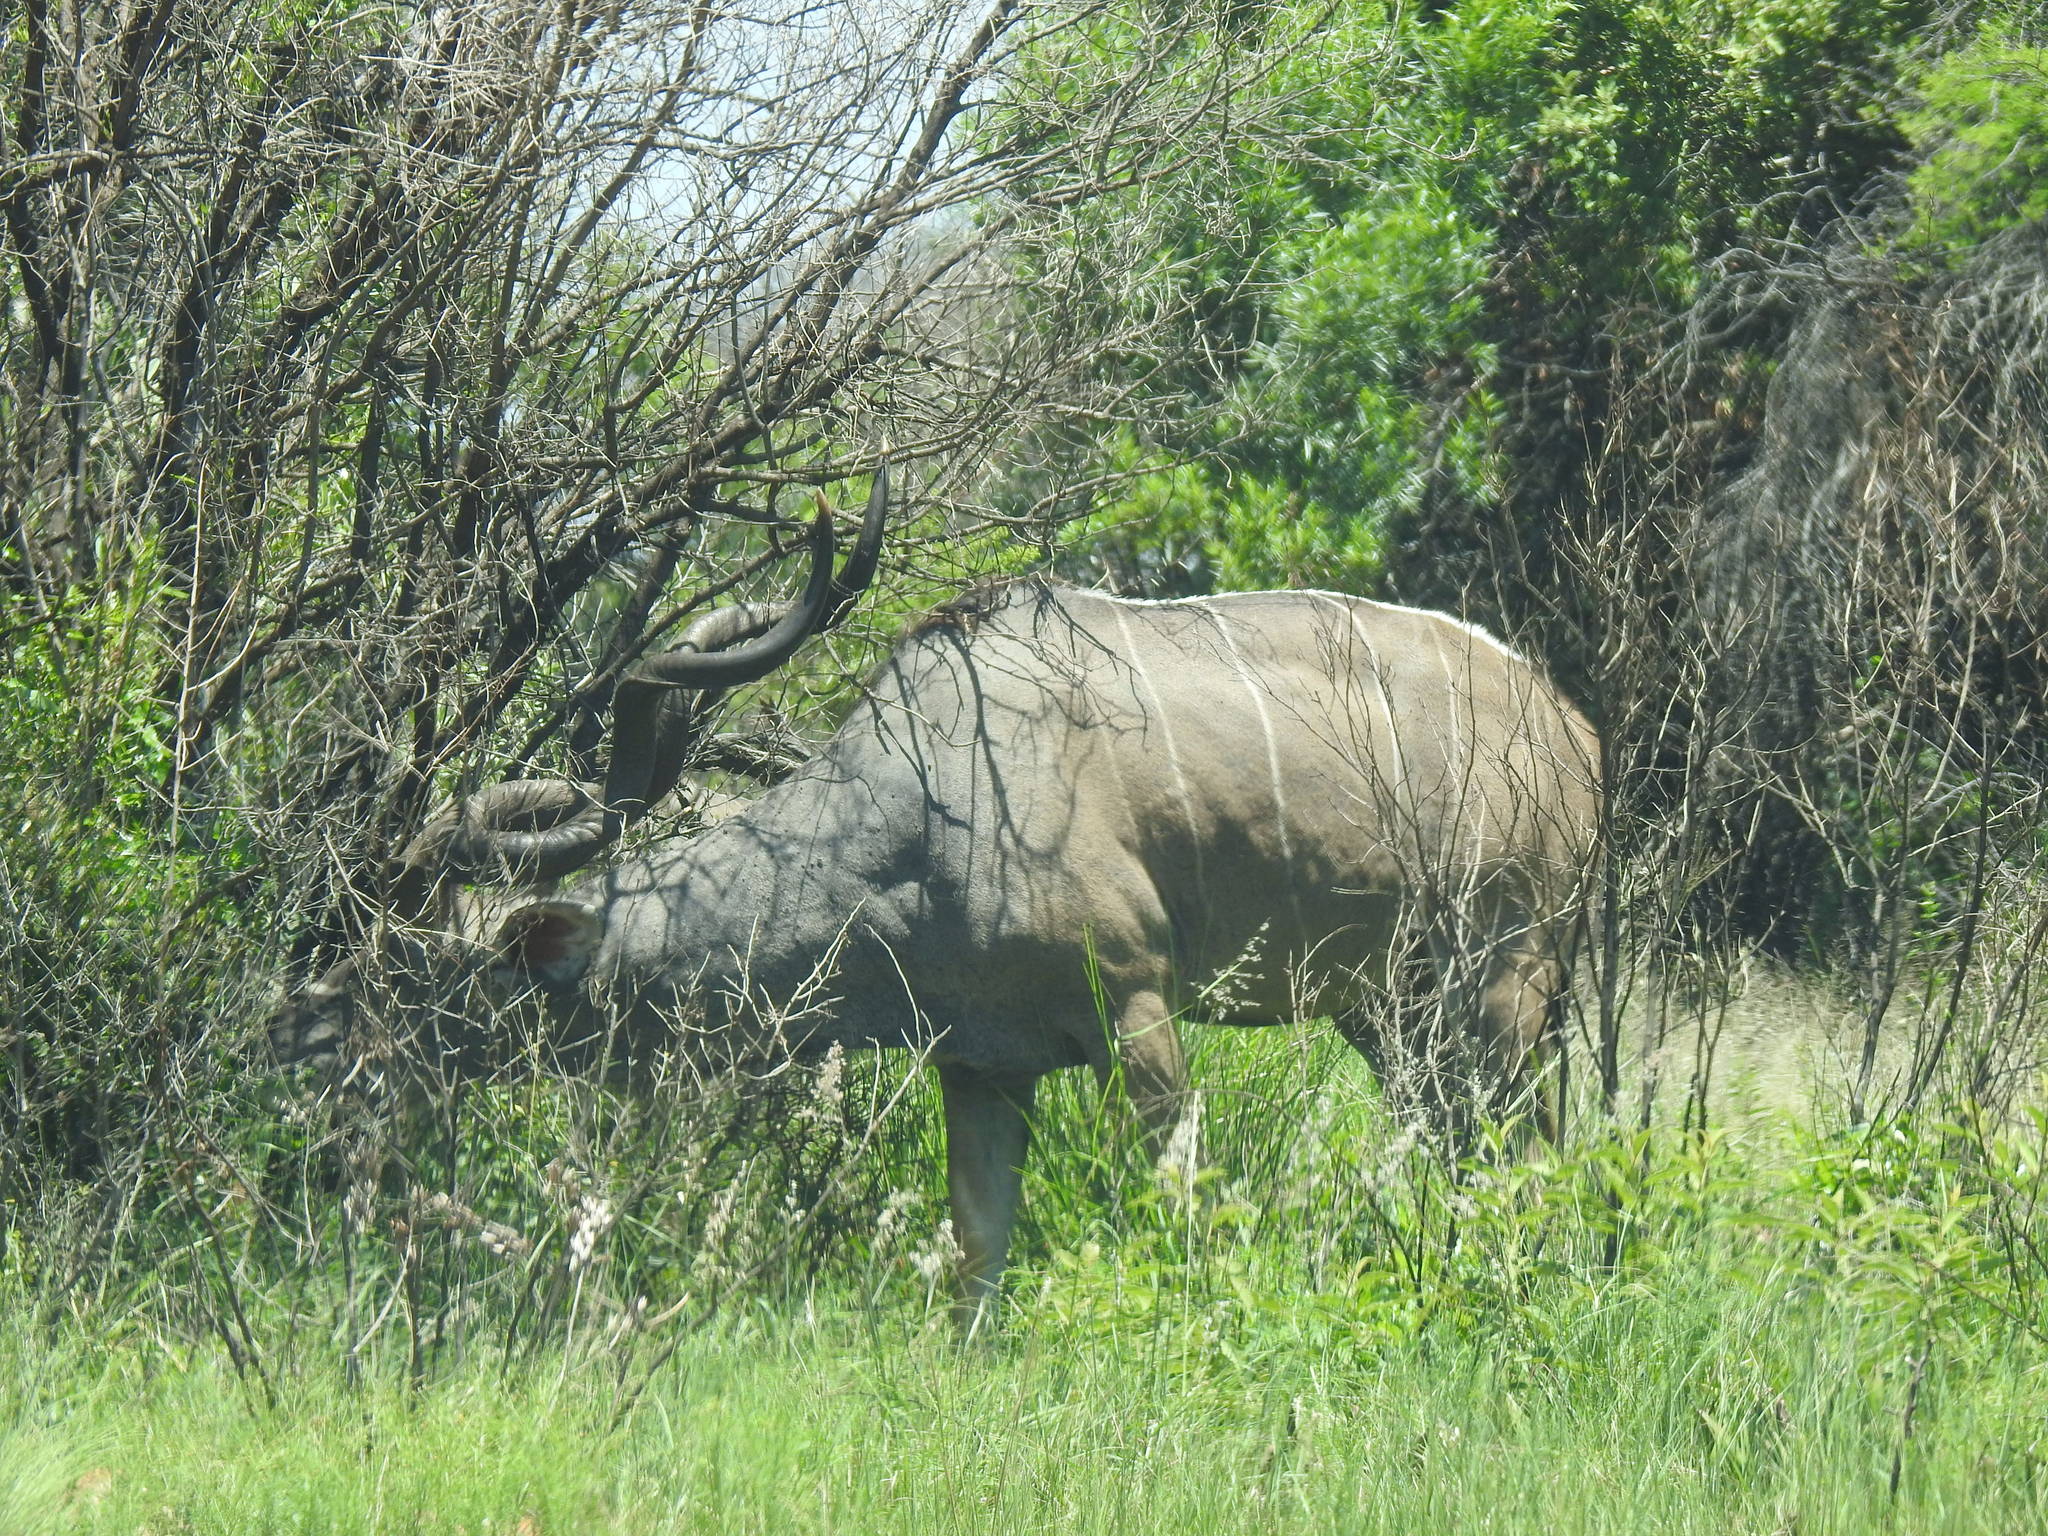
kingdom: Animalia
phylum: Chordata
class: Mammalia
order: Artiodactyla
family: Bovidae
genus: Tragelaphus
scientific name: Tragelaphus strepsiceros
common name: Greater kudu
